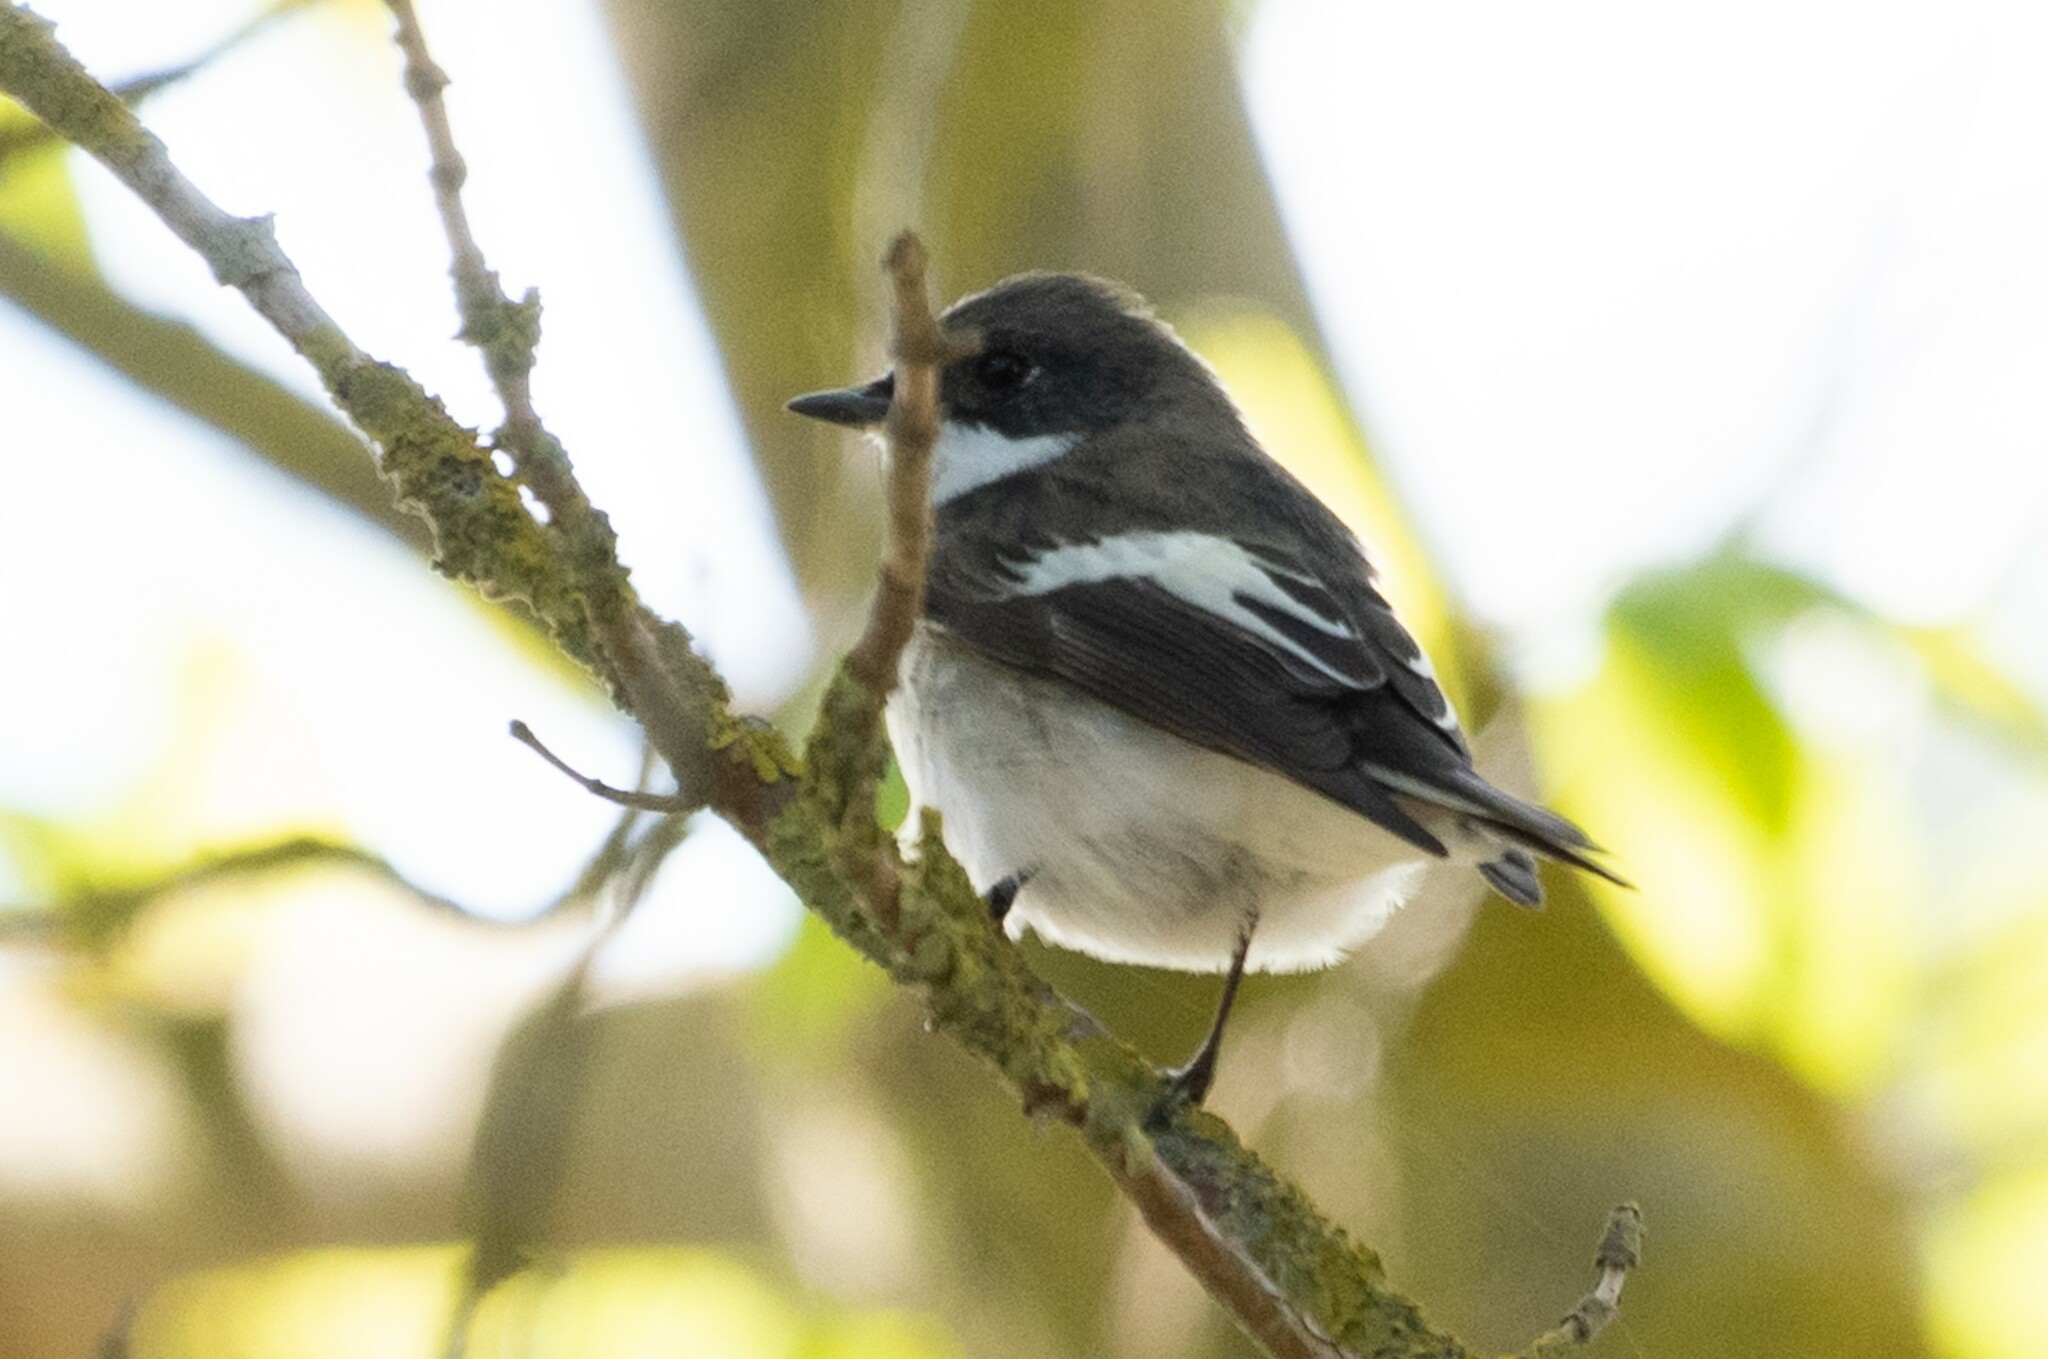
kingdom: Animalia
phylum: Chordata
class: Aves
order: Passeriformes
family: Muscicapidae
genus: Ficedula
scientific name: Ficedula hypoleuca
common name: European pied flycatcher
